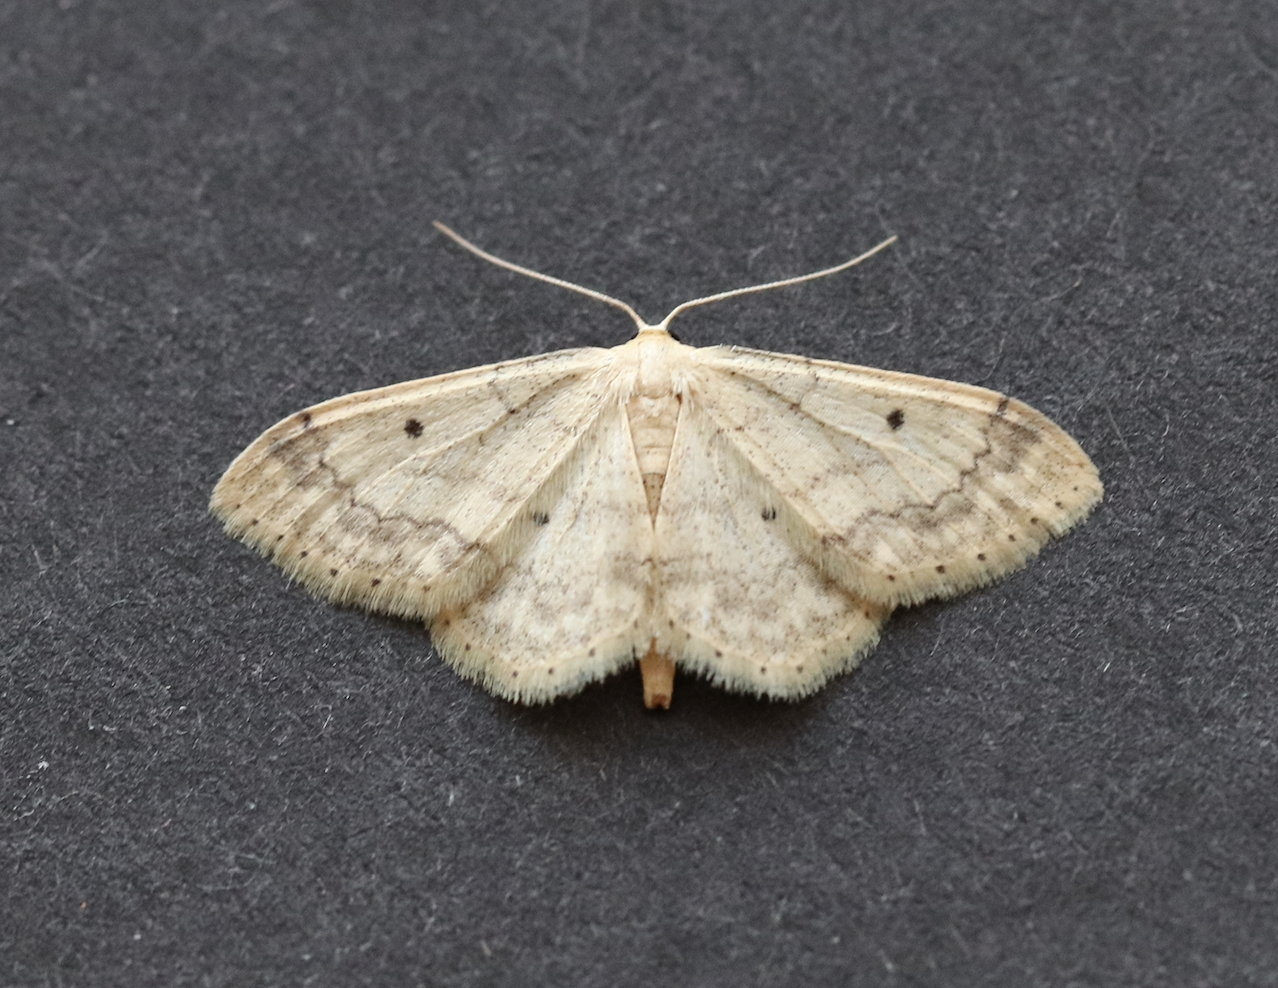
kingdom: Animalia
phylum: Arthropoda
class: Insecta
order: Lepidoptera
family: Geometridae
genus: Idaea
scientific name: Idaea biselata
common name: Small fan-footed wave
